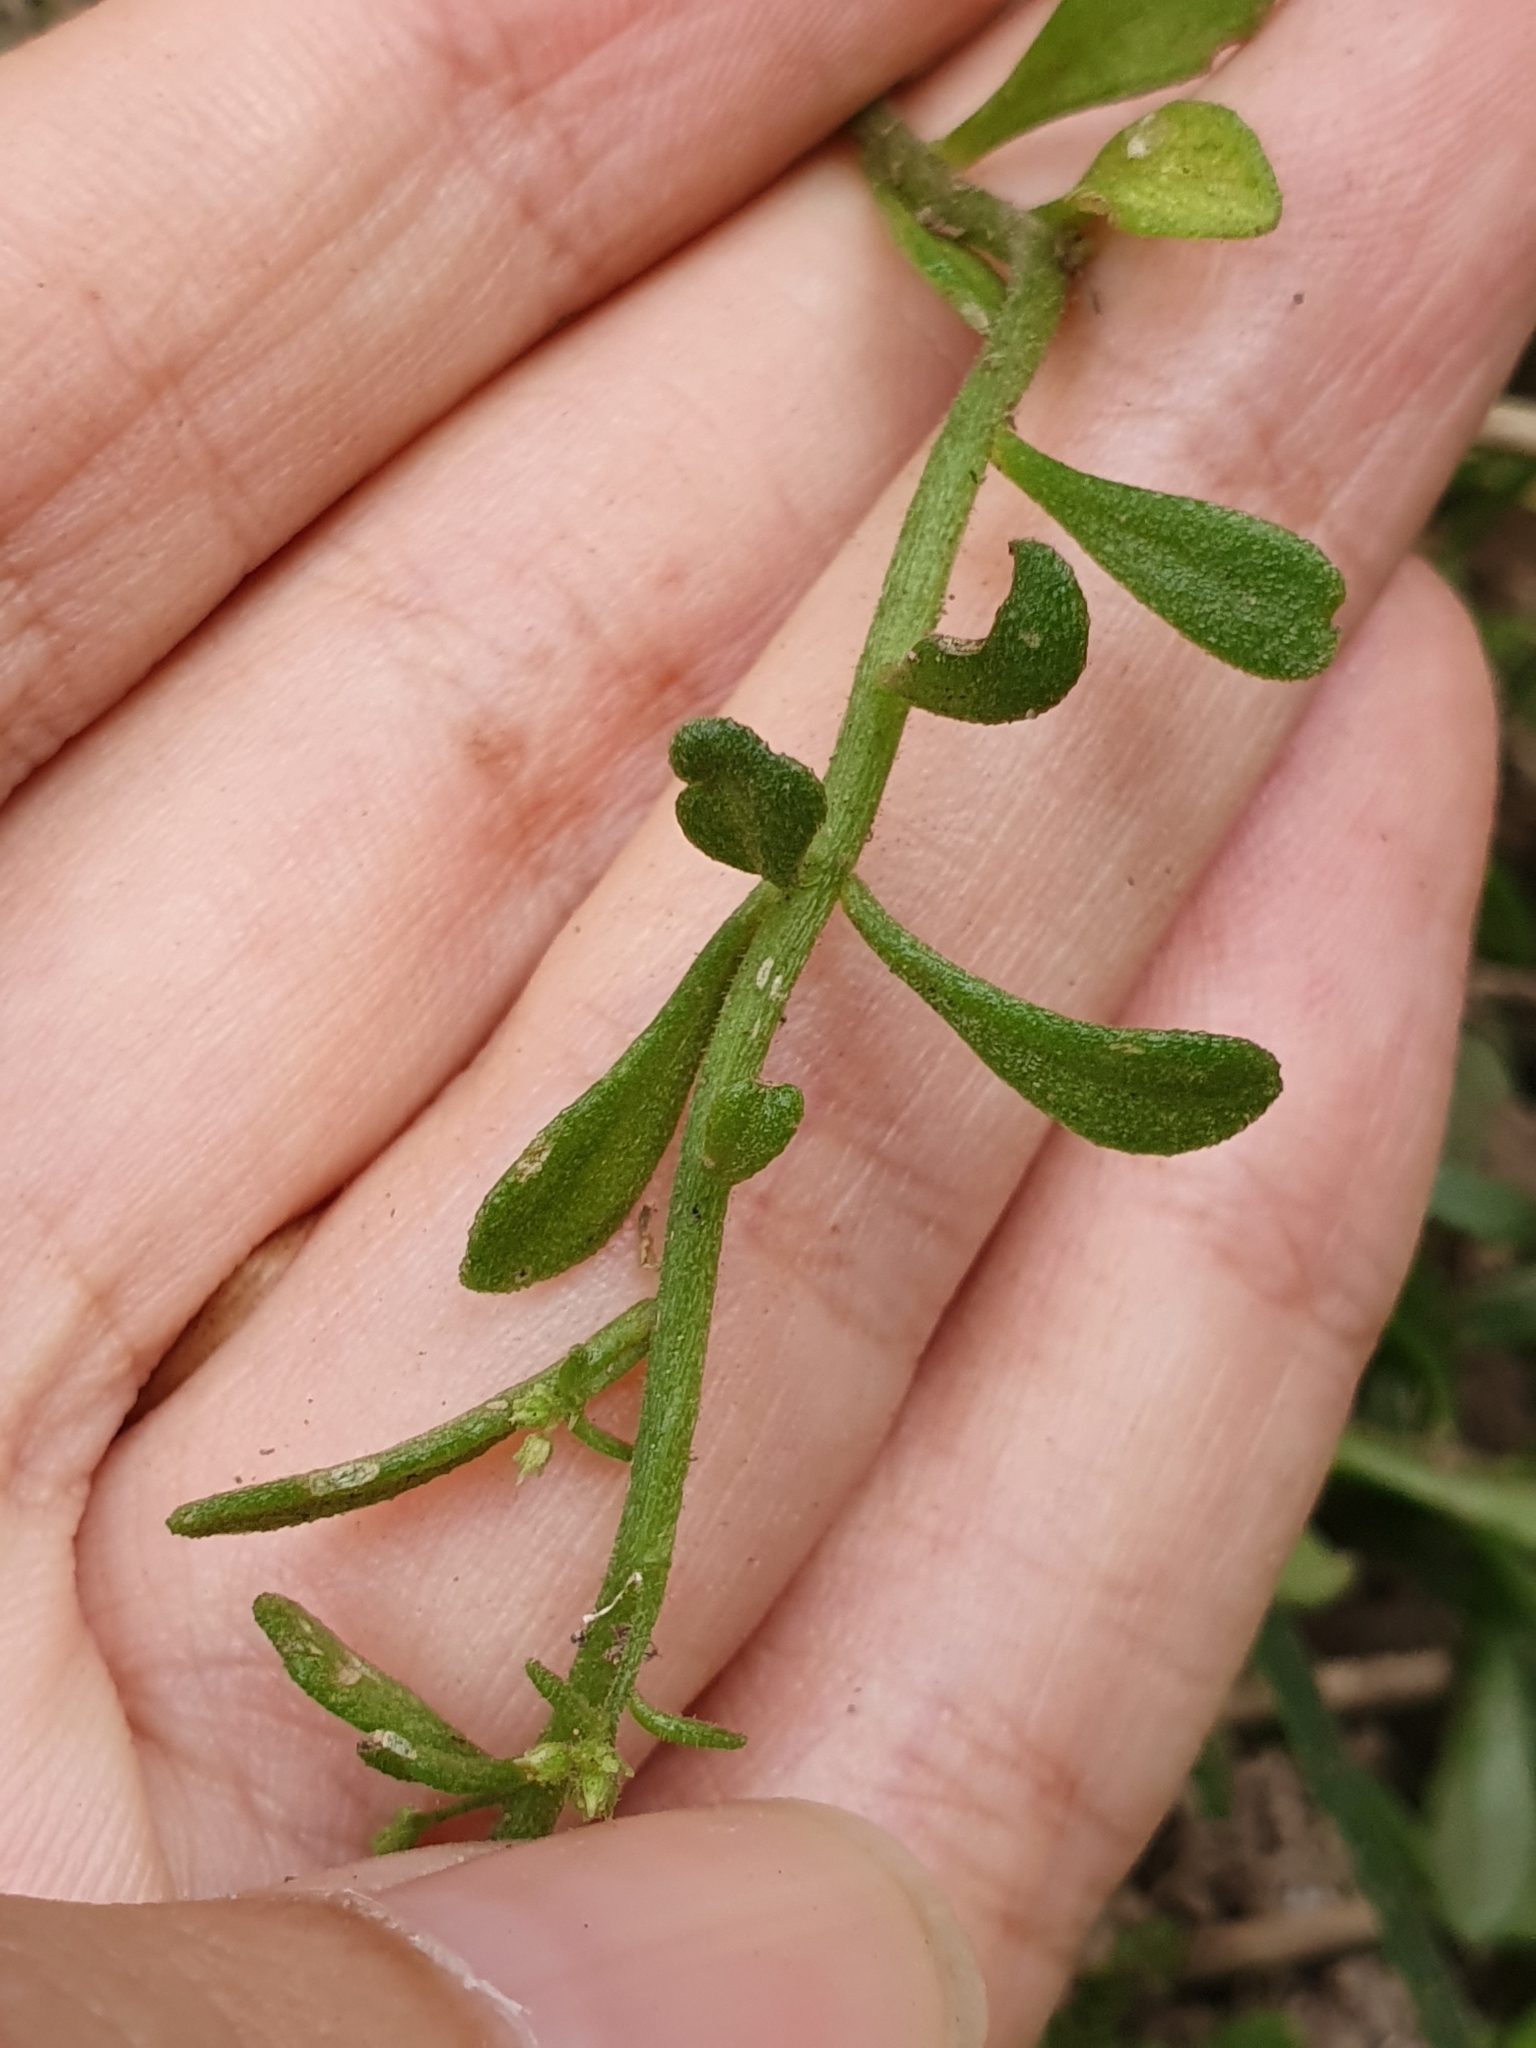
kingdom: Plantae
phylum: Tracheophyta
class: Magnoliopsida
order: Saxifragales
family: Crassulaceae
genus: Sedum
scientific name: Sedum cepaea
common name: Pink stonecrop
